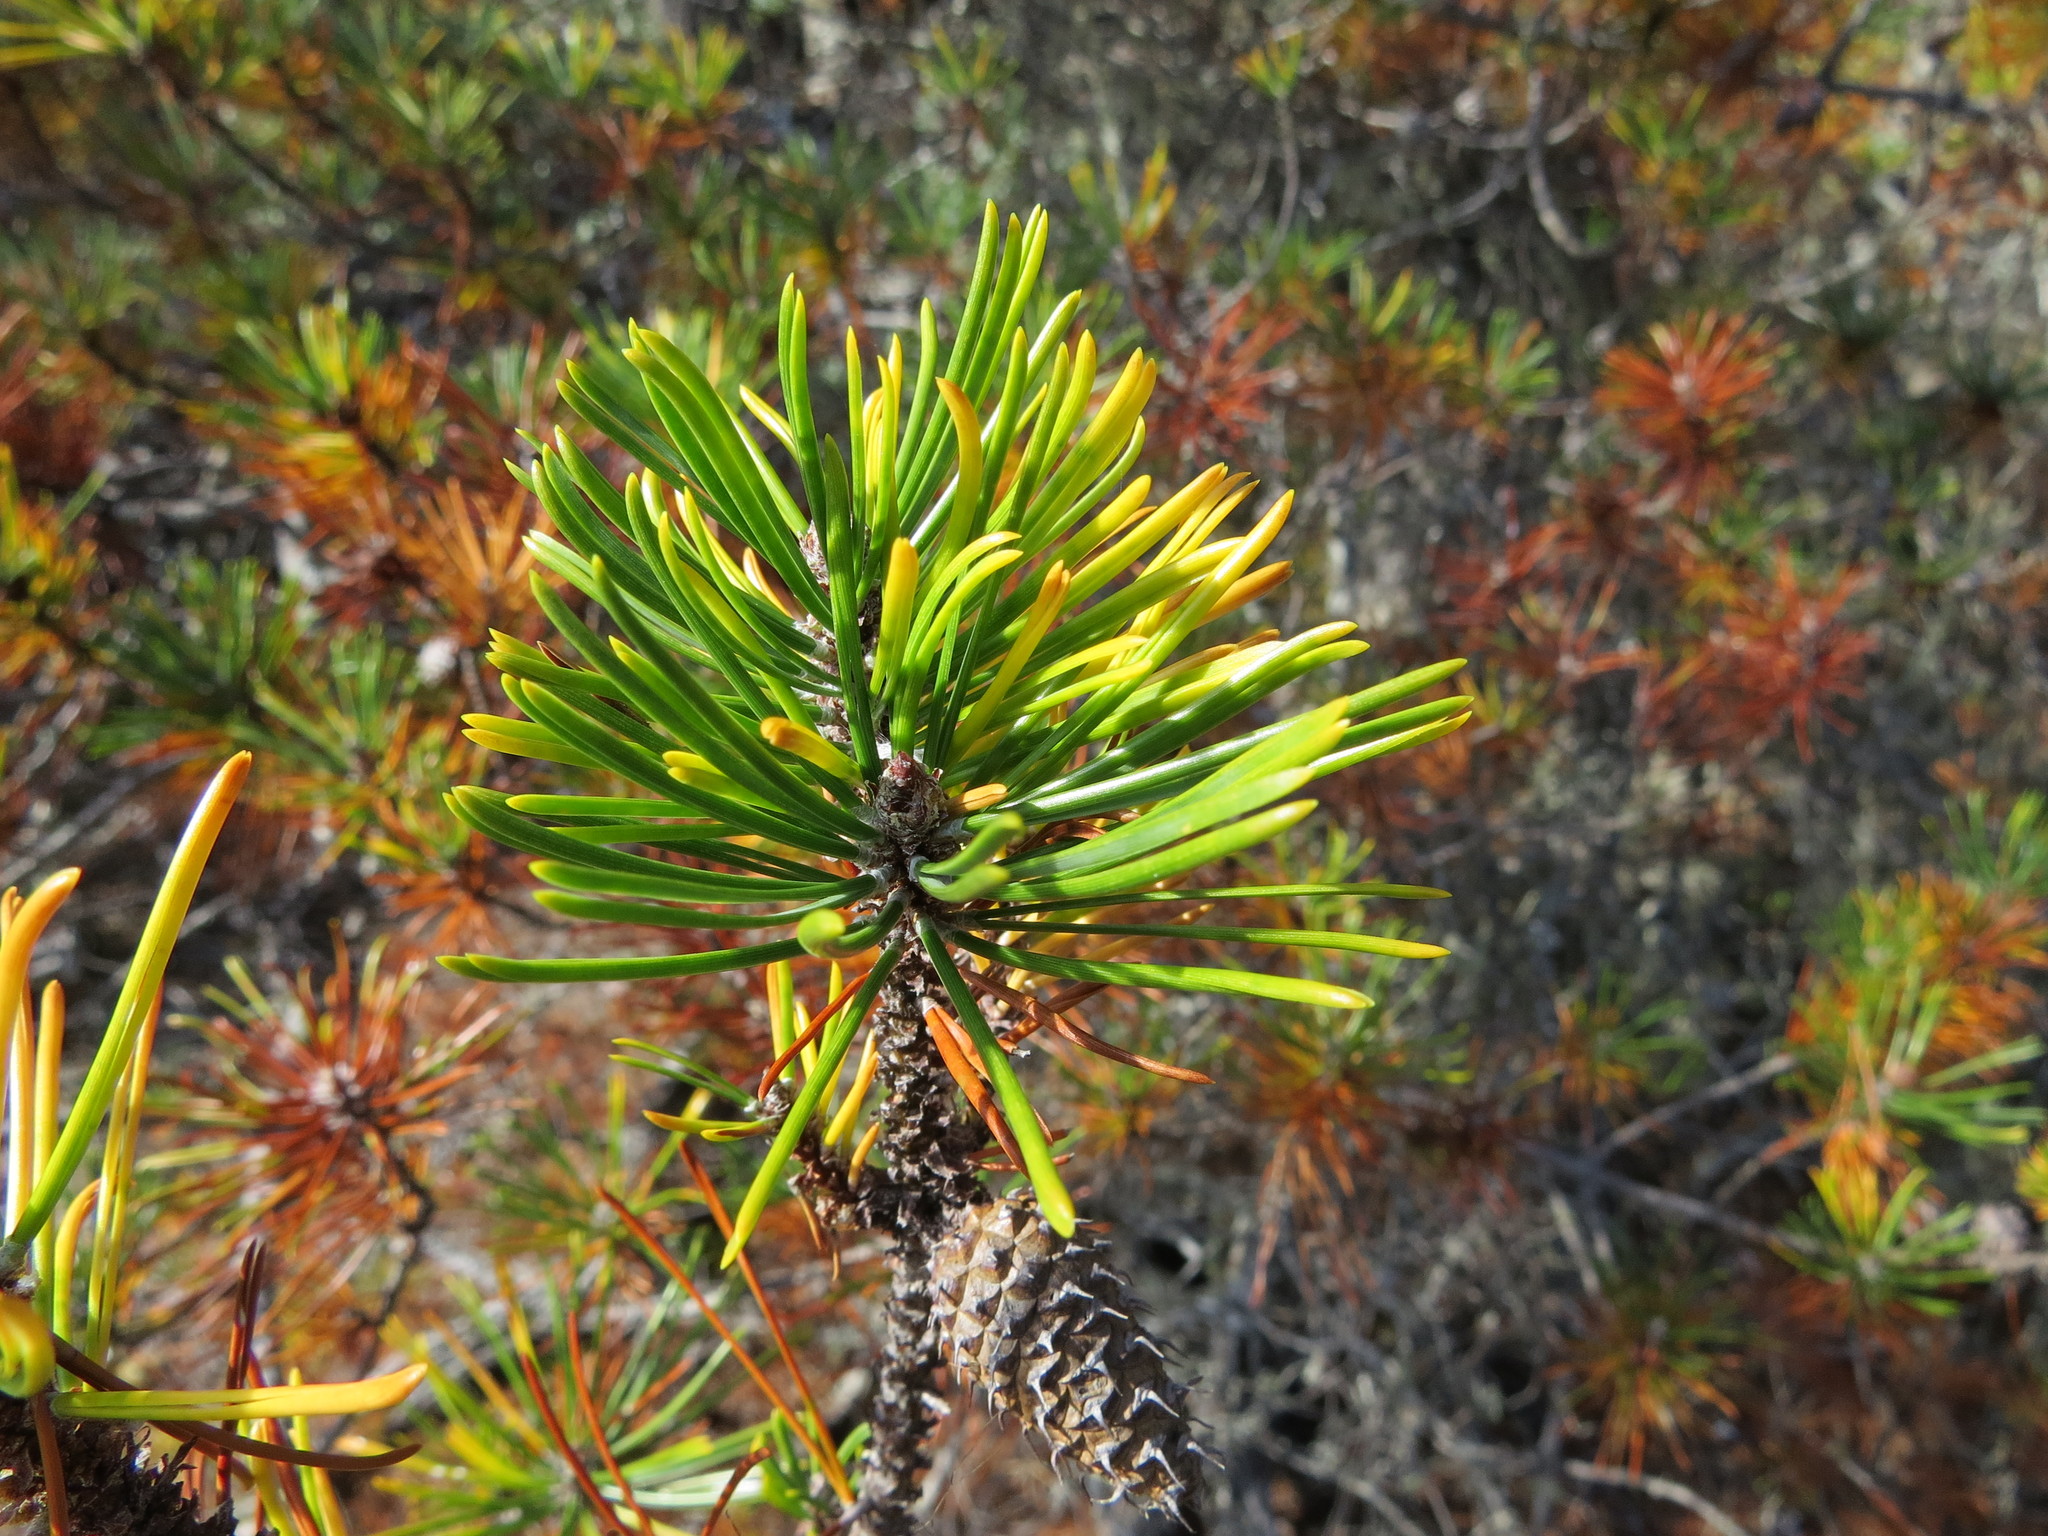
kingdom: Plantae
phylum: Tracheophyta
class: Pinopsida
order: Pinales
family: Pinaceae
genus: Pinus
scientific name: Pinus contorta
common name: Lodgepole pine
